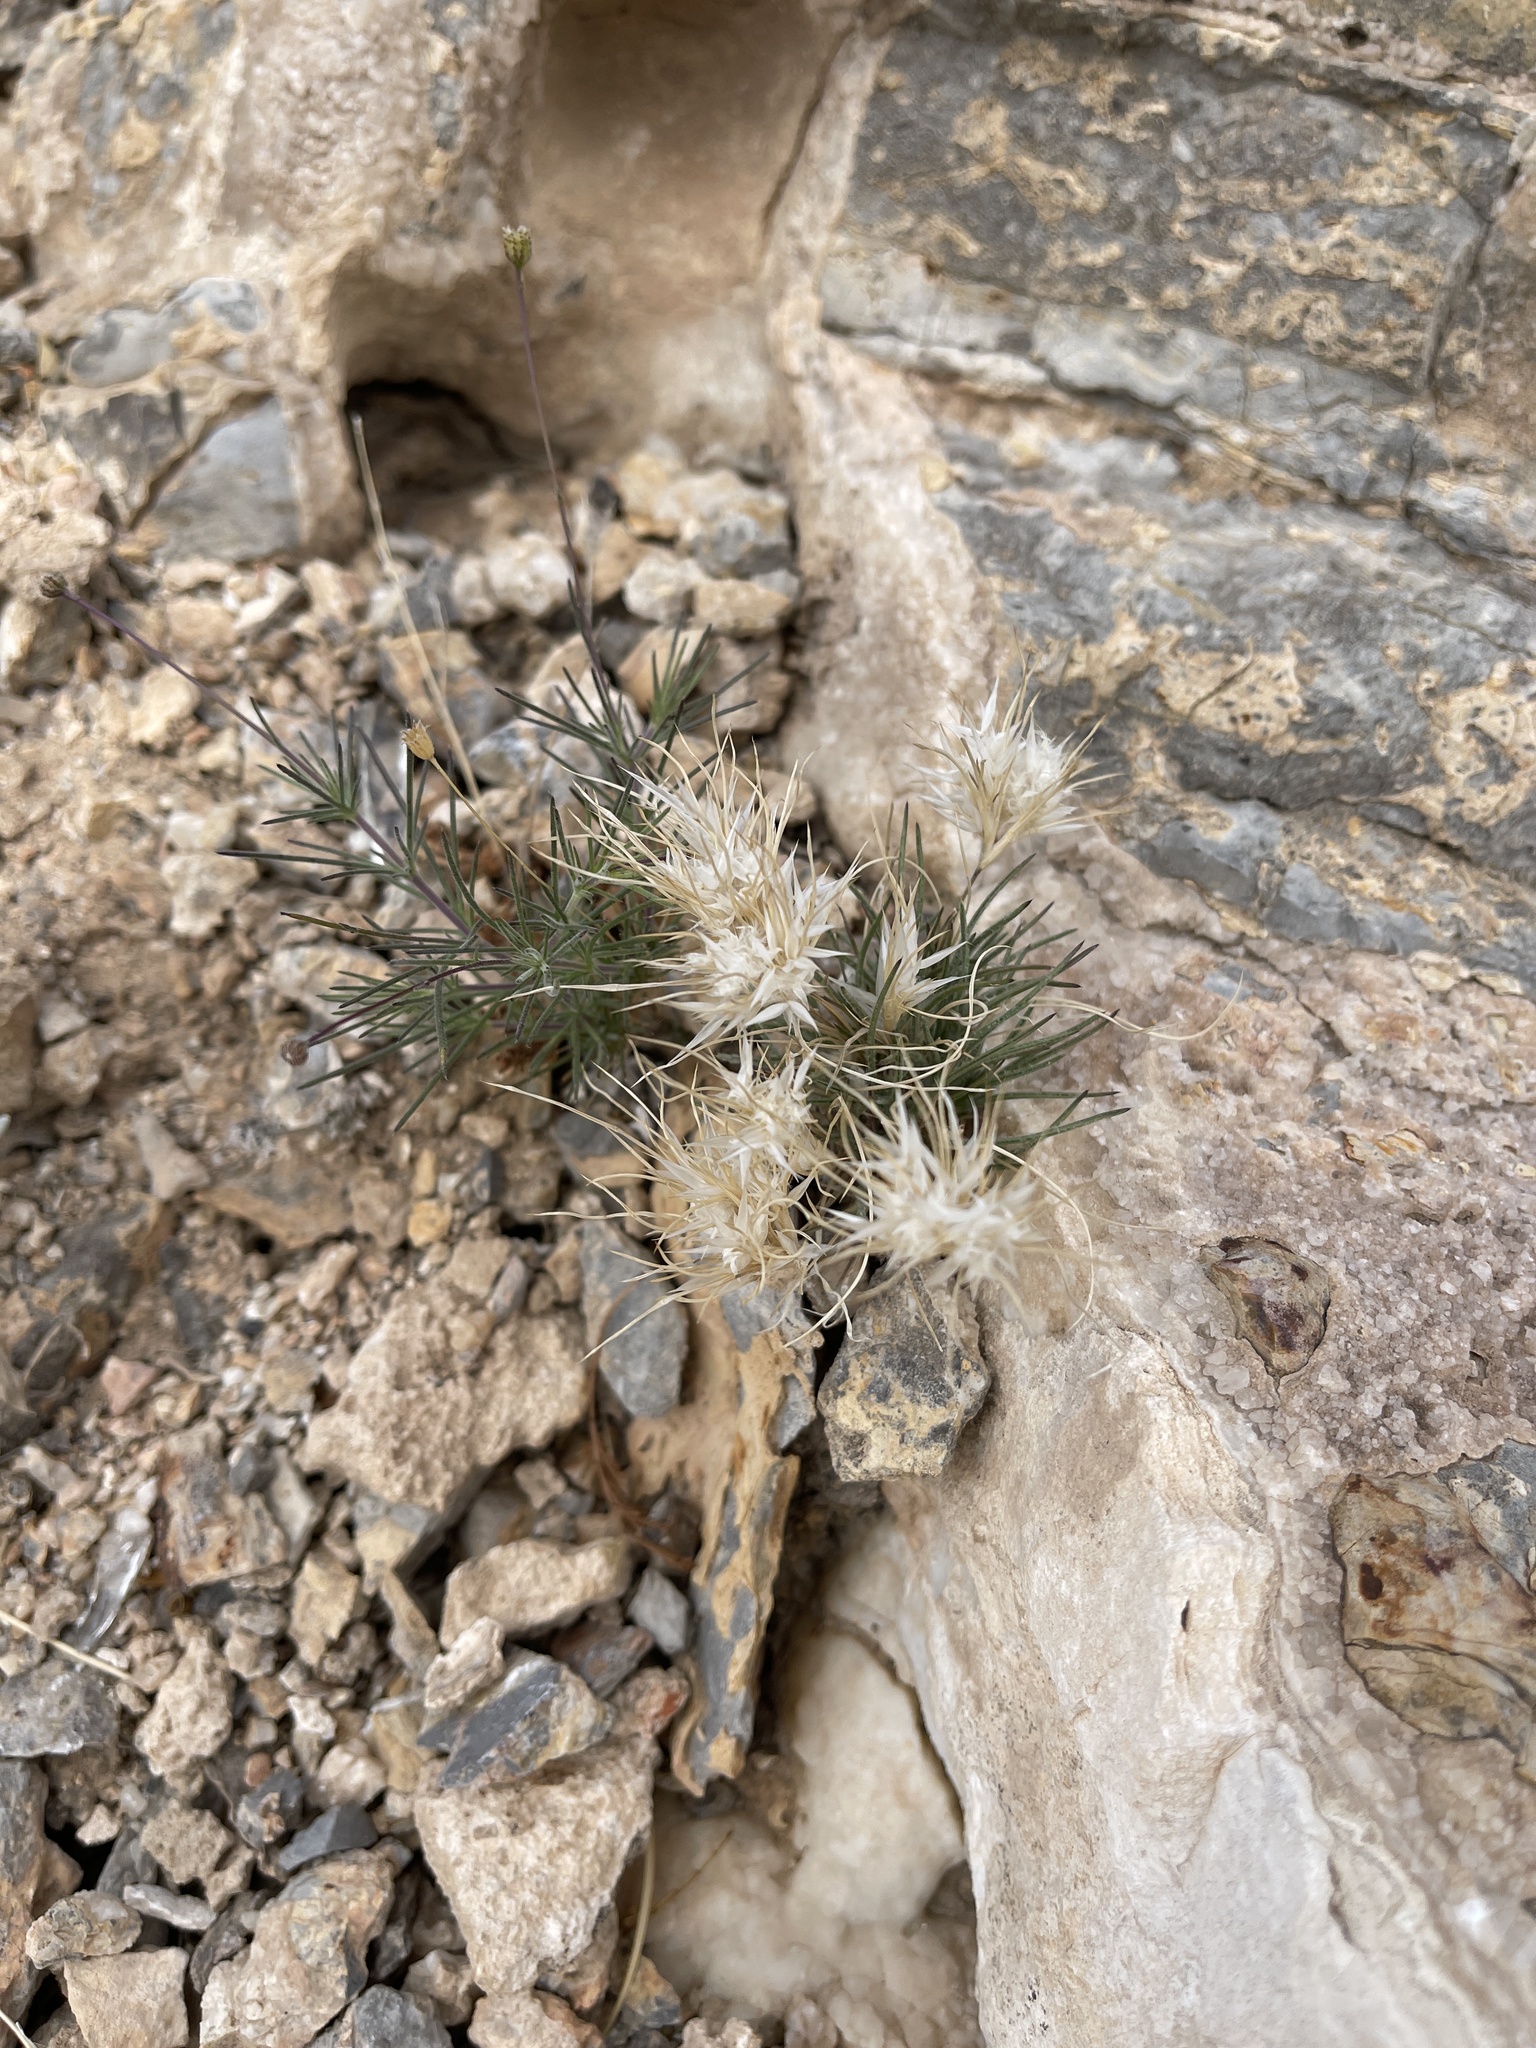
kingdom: Plantae
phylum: Tracheophyta
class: Liliopsida
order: Poales
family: Poaceae
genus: Dasyochloa
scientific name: Dasyochloa pulchella
